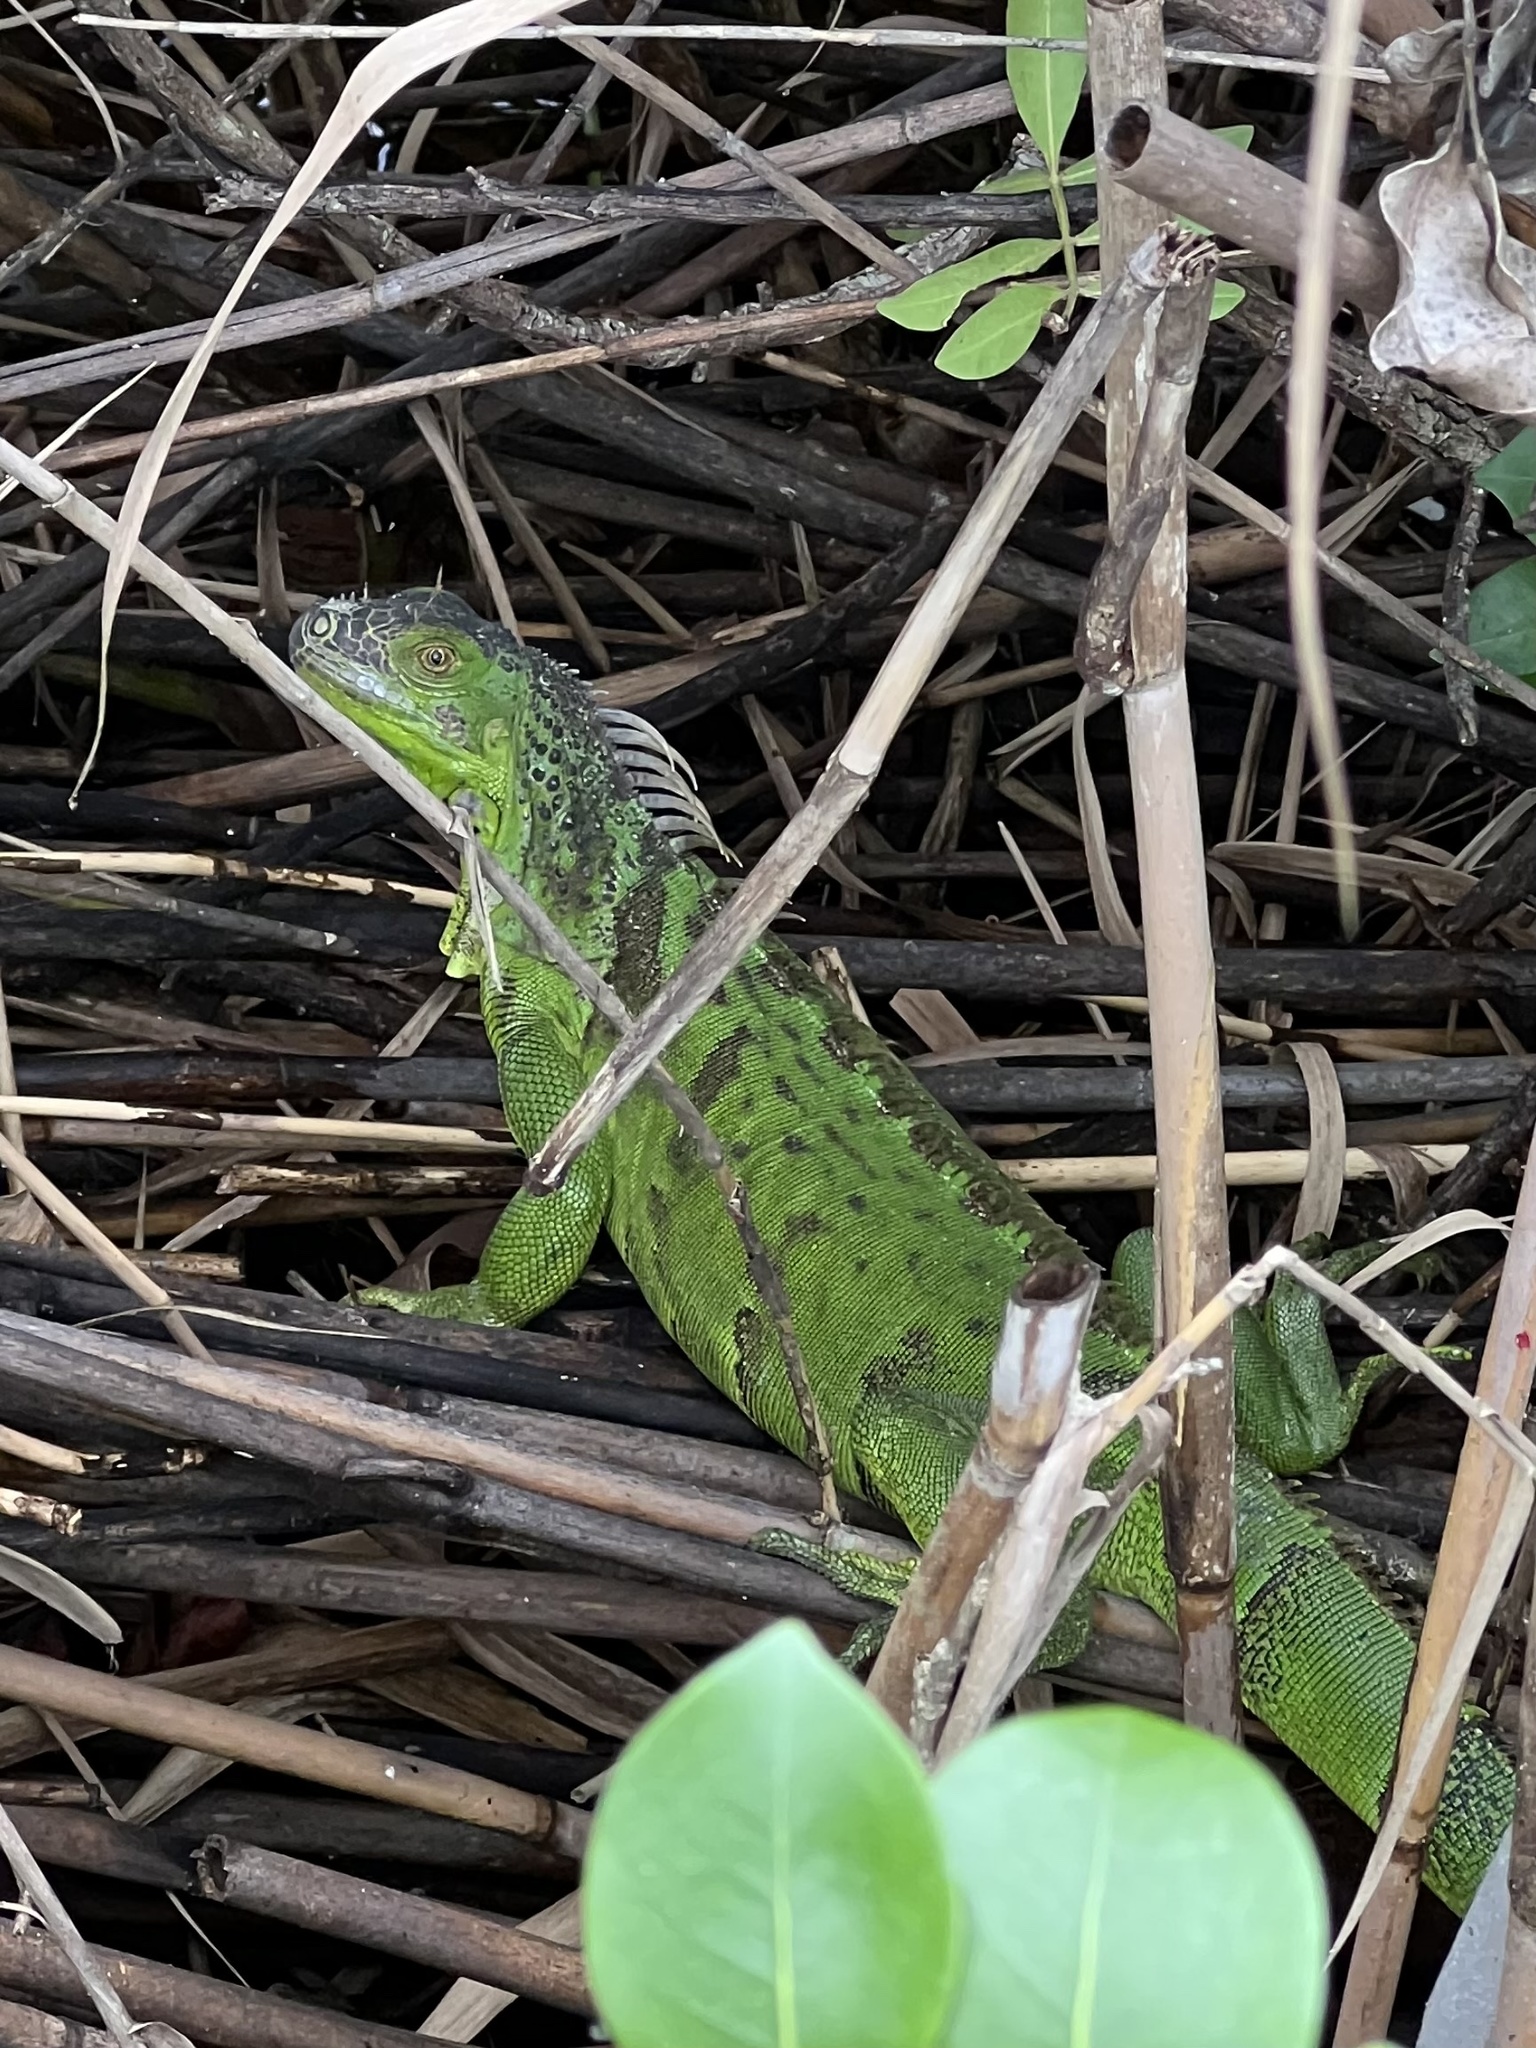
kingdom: Animalia
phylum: Chordata
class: Squamata
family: Iguanidae
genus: Iguana
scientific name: Iguana iguana
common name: Green iguana
